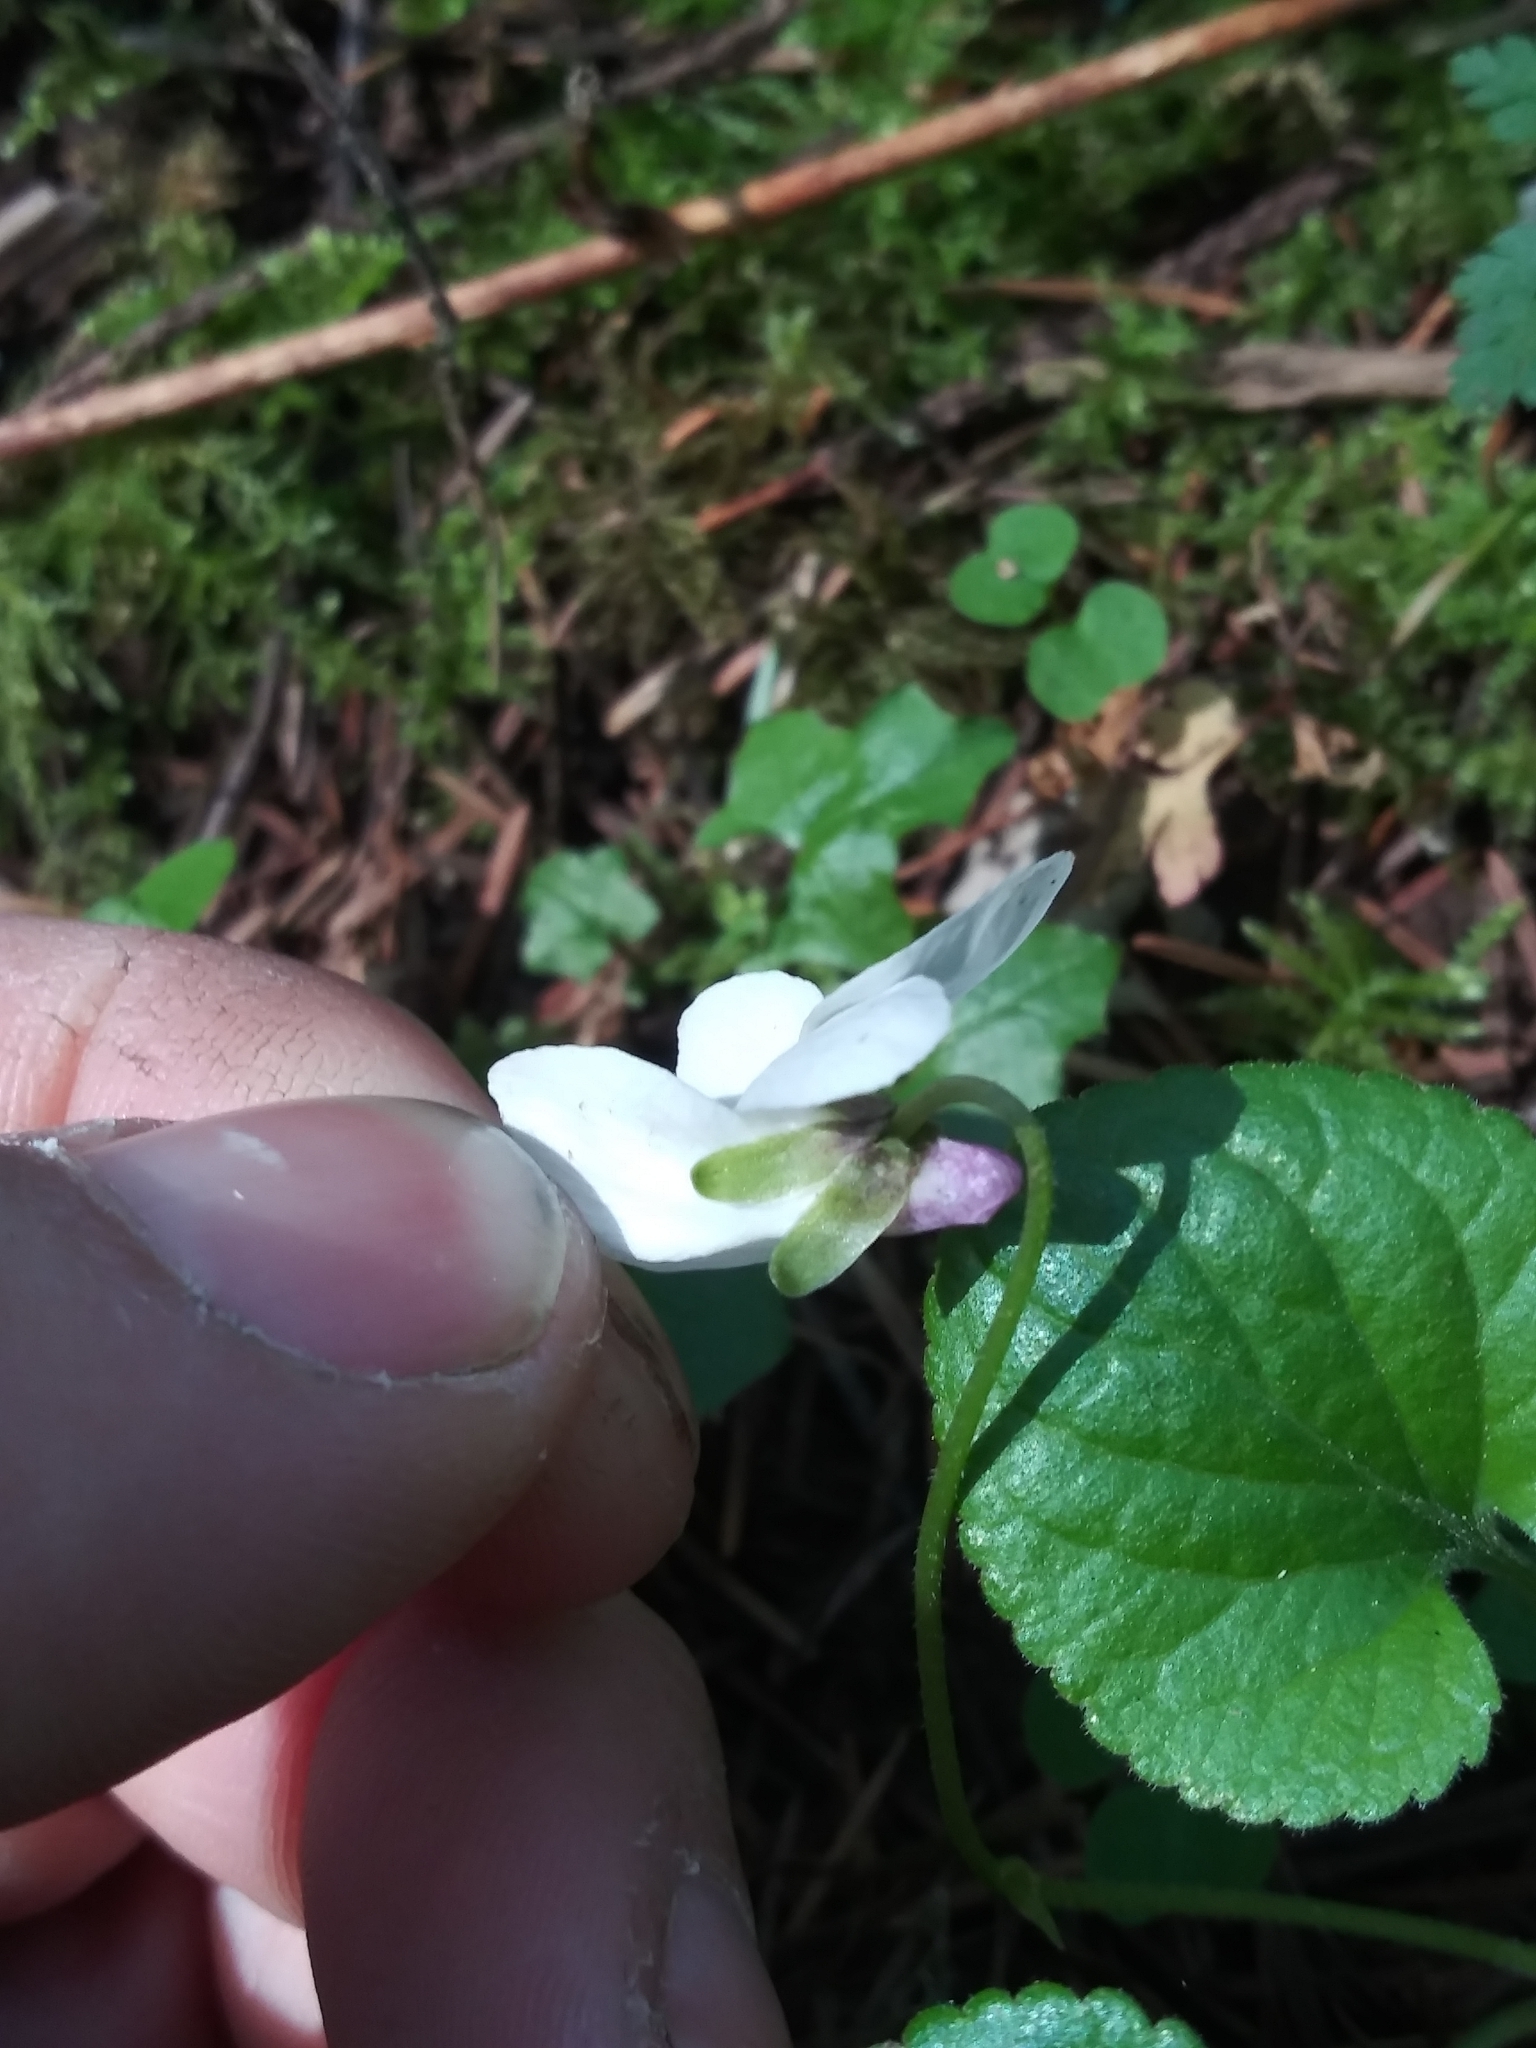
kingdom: Plantae
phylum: Tracheophyta
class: Magnoliopsida
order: Malpighiales
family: Violaceae
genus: Viola
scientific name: Viola odorata
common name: Sweet violet
